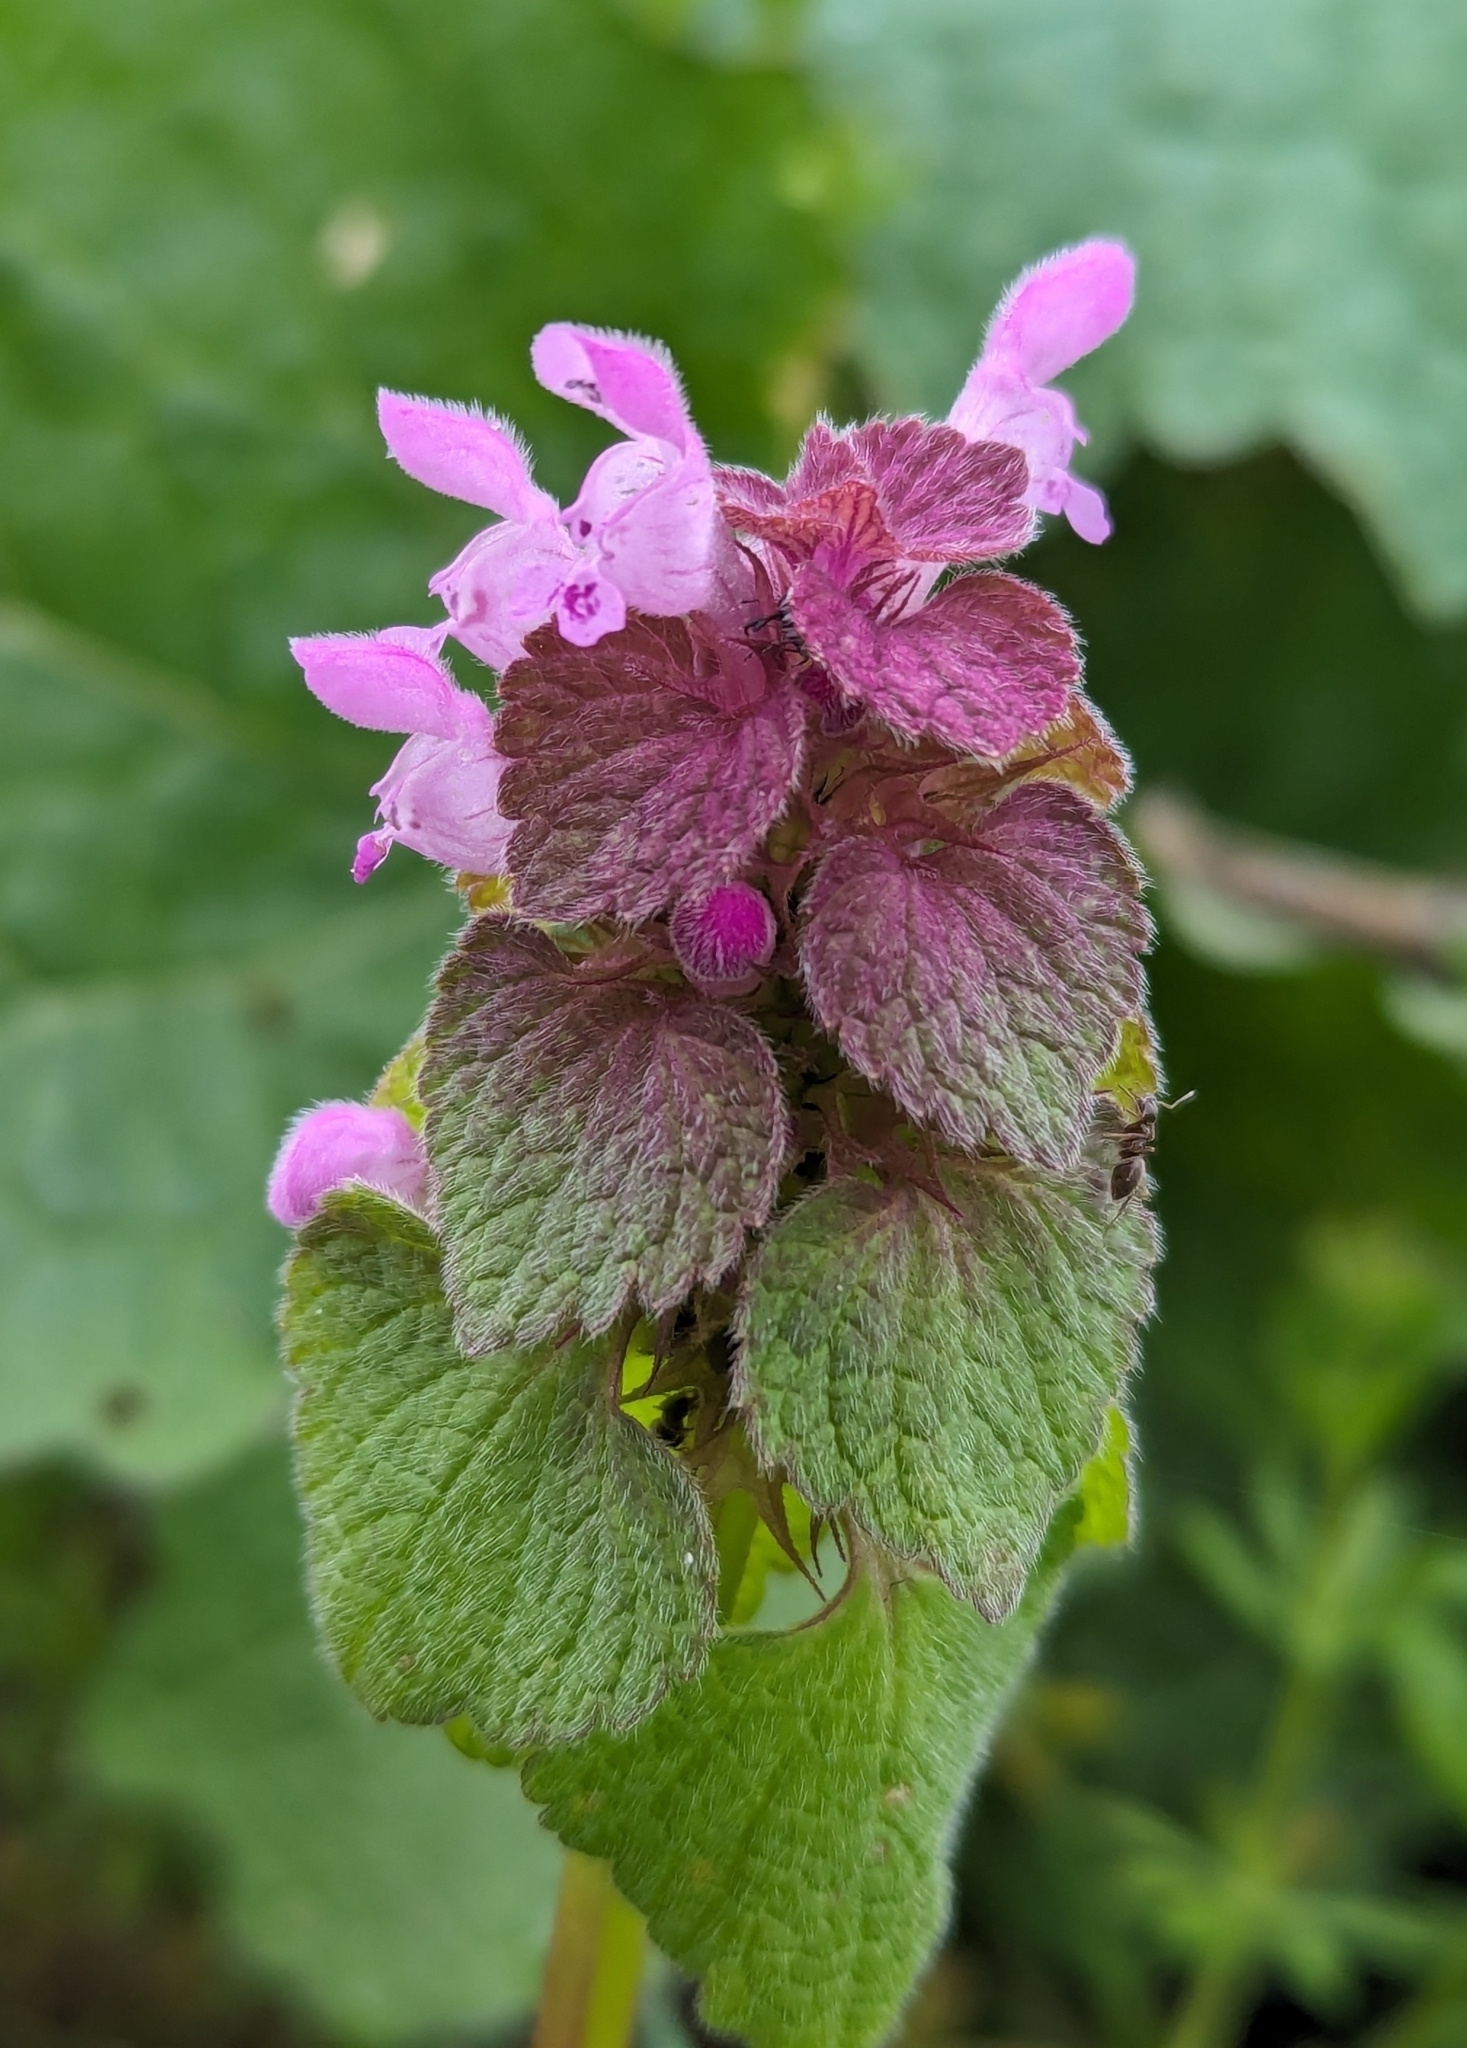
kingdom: Plantae
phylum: Tracheophyta
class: Magnoliopsida
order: Lamiales
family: Lamiaceae
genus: Lamium
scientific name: Lamium purpureum
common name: Red dead-nettle
